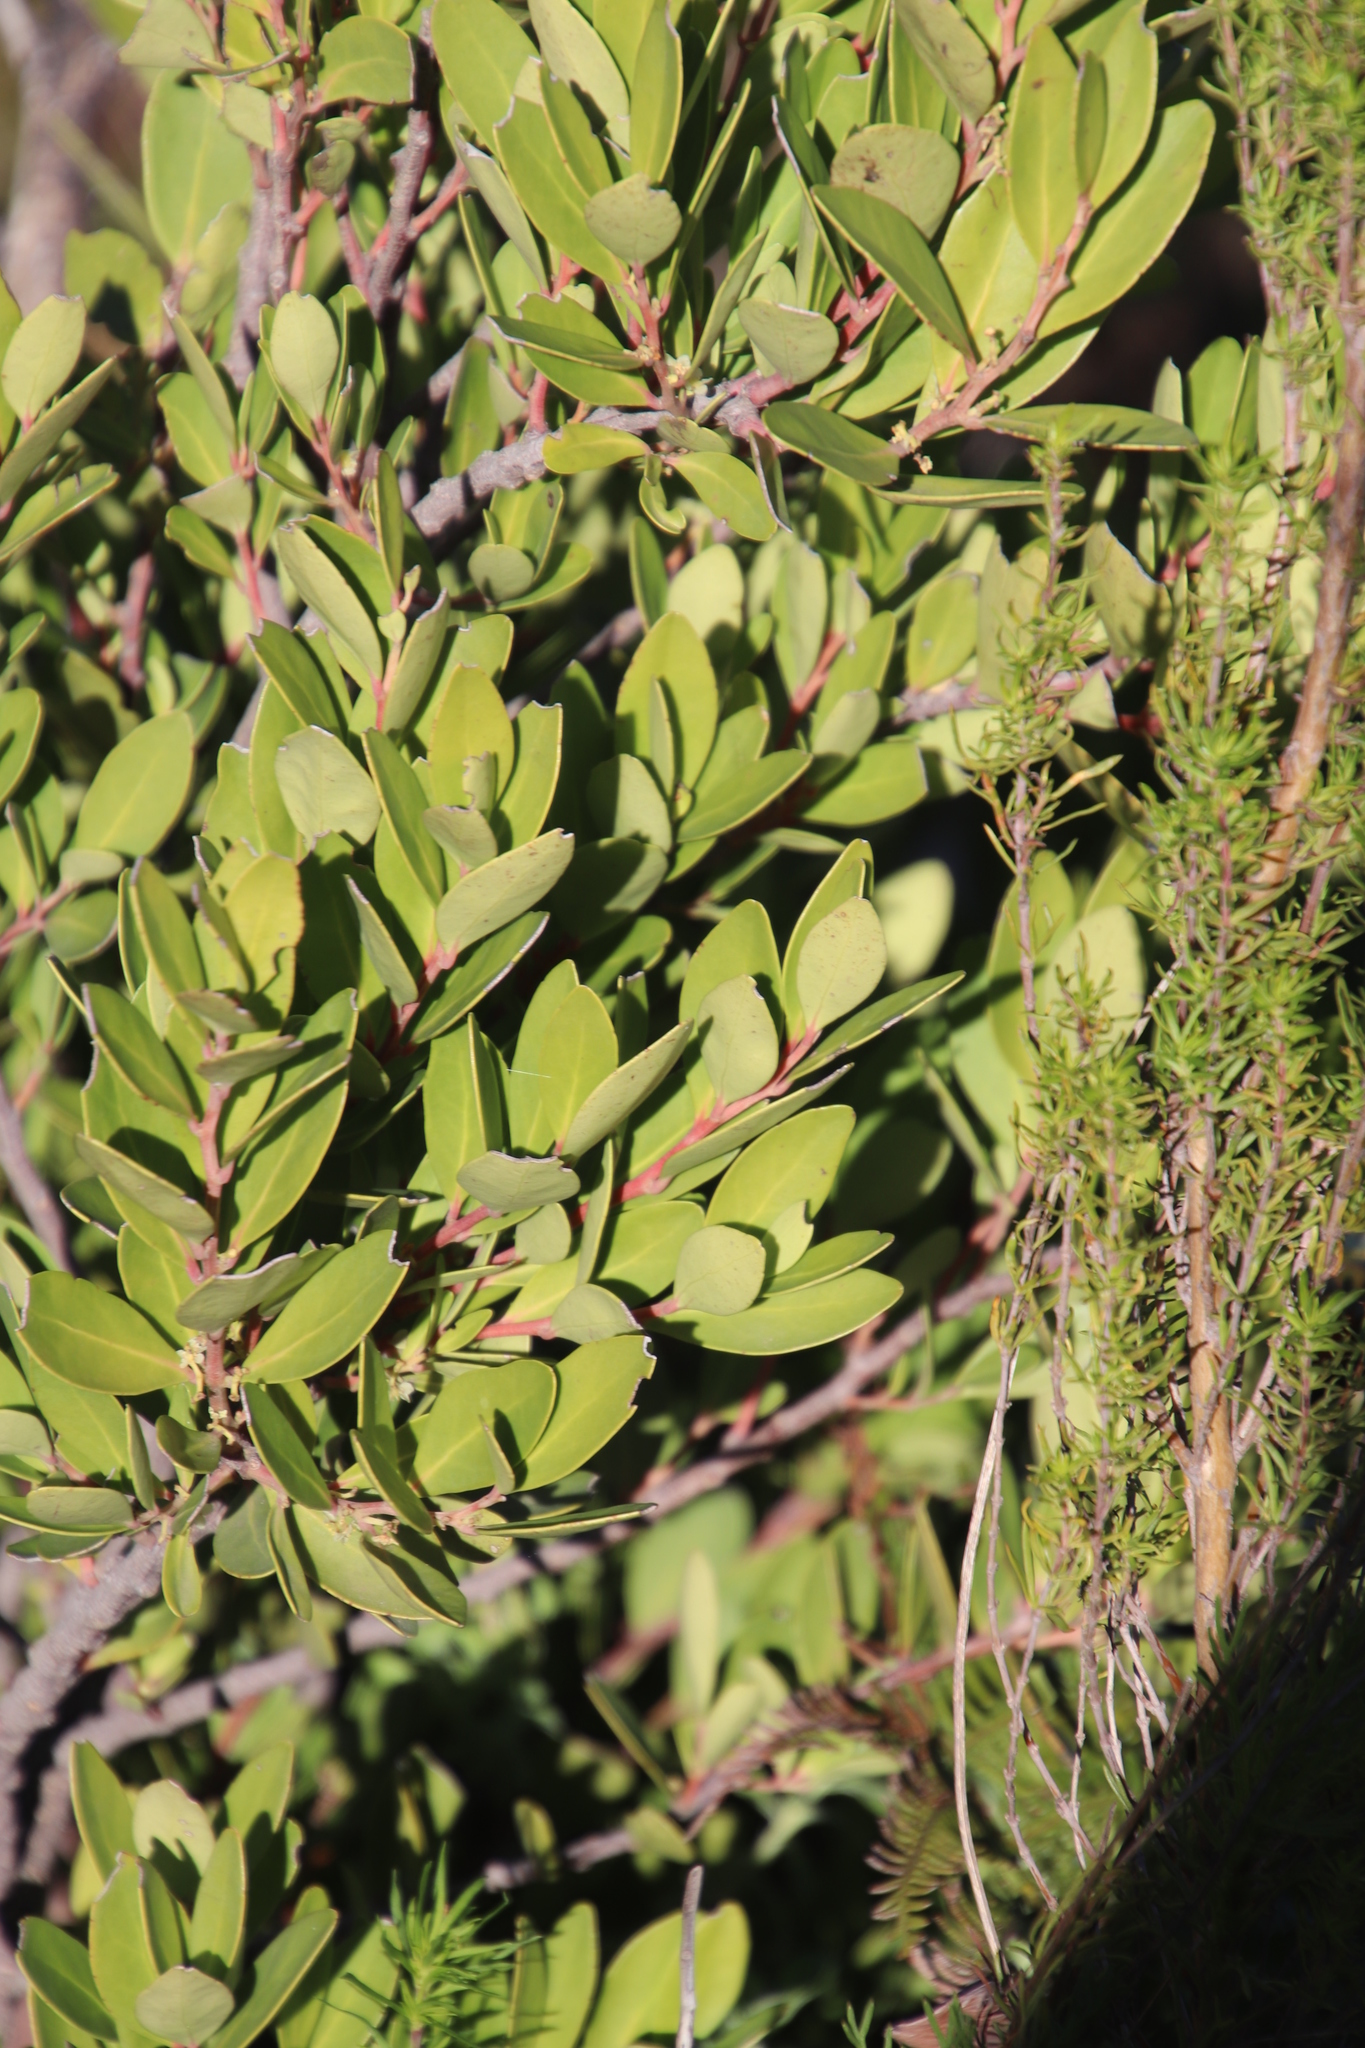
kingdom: Plantae
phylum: Tracheophyta
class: Magnoliopsida
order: Celastrales
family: Celastraceae
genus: Gymnosporia
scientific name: Gymnosporia laurina
